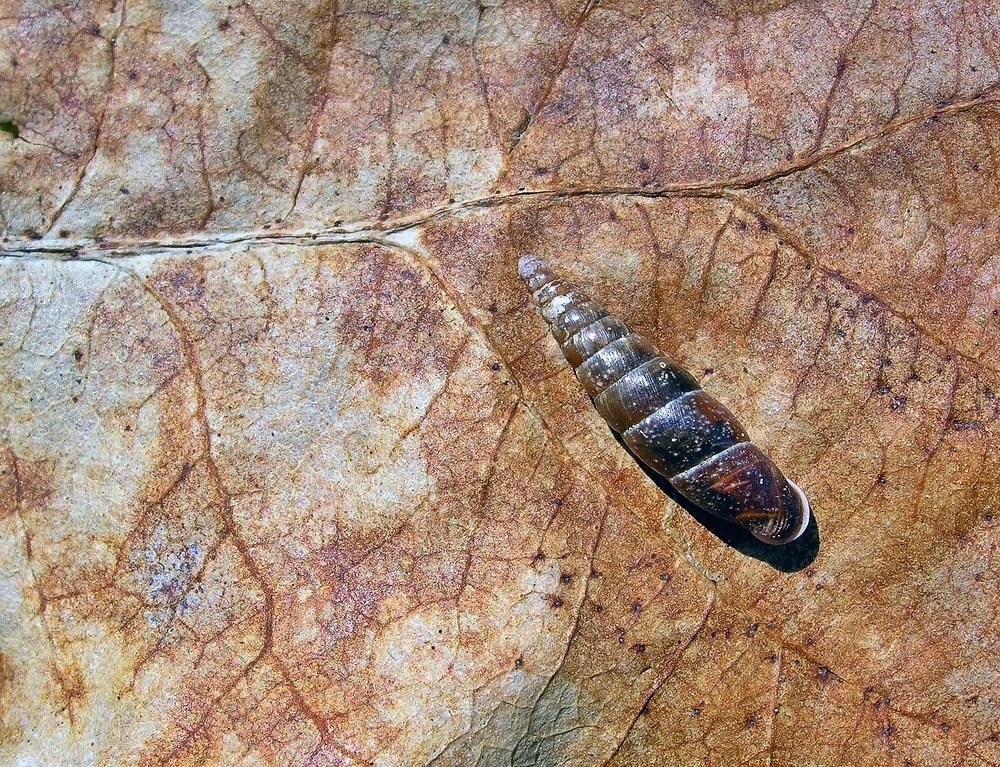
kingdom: Animalia
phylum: Mollusca
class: Gastropoda
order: Stylommatophora
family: Clausiliidae
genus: Cochlodina
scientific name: Cochlodina laminata
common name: Plaited door snail
